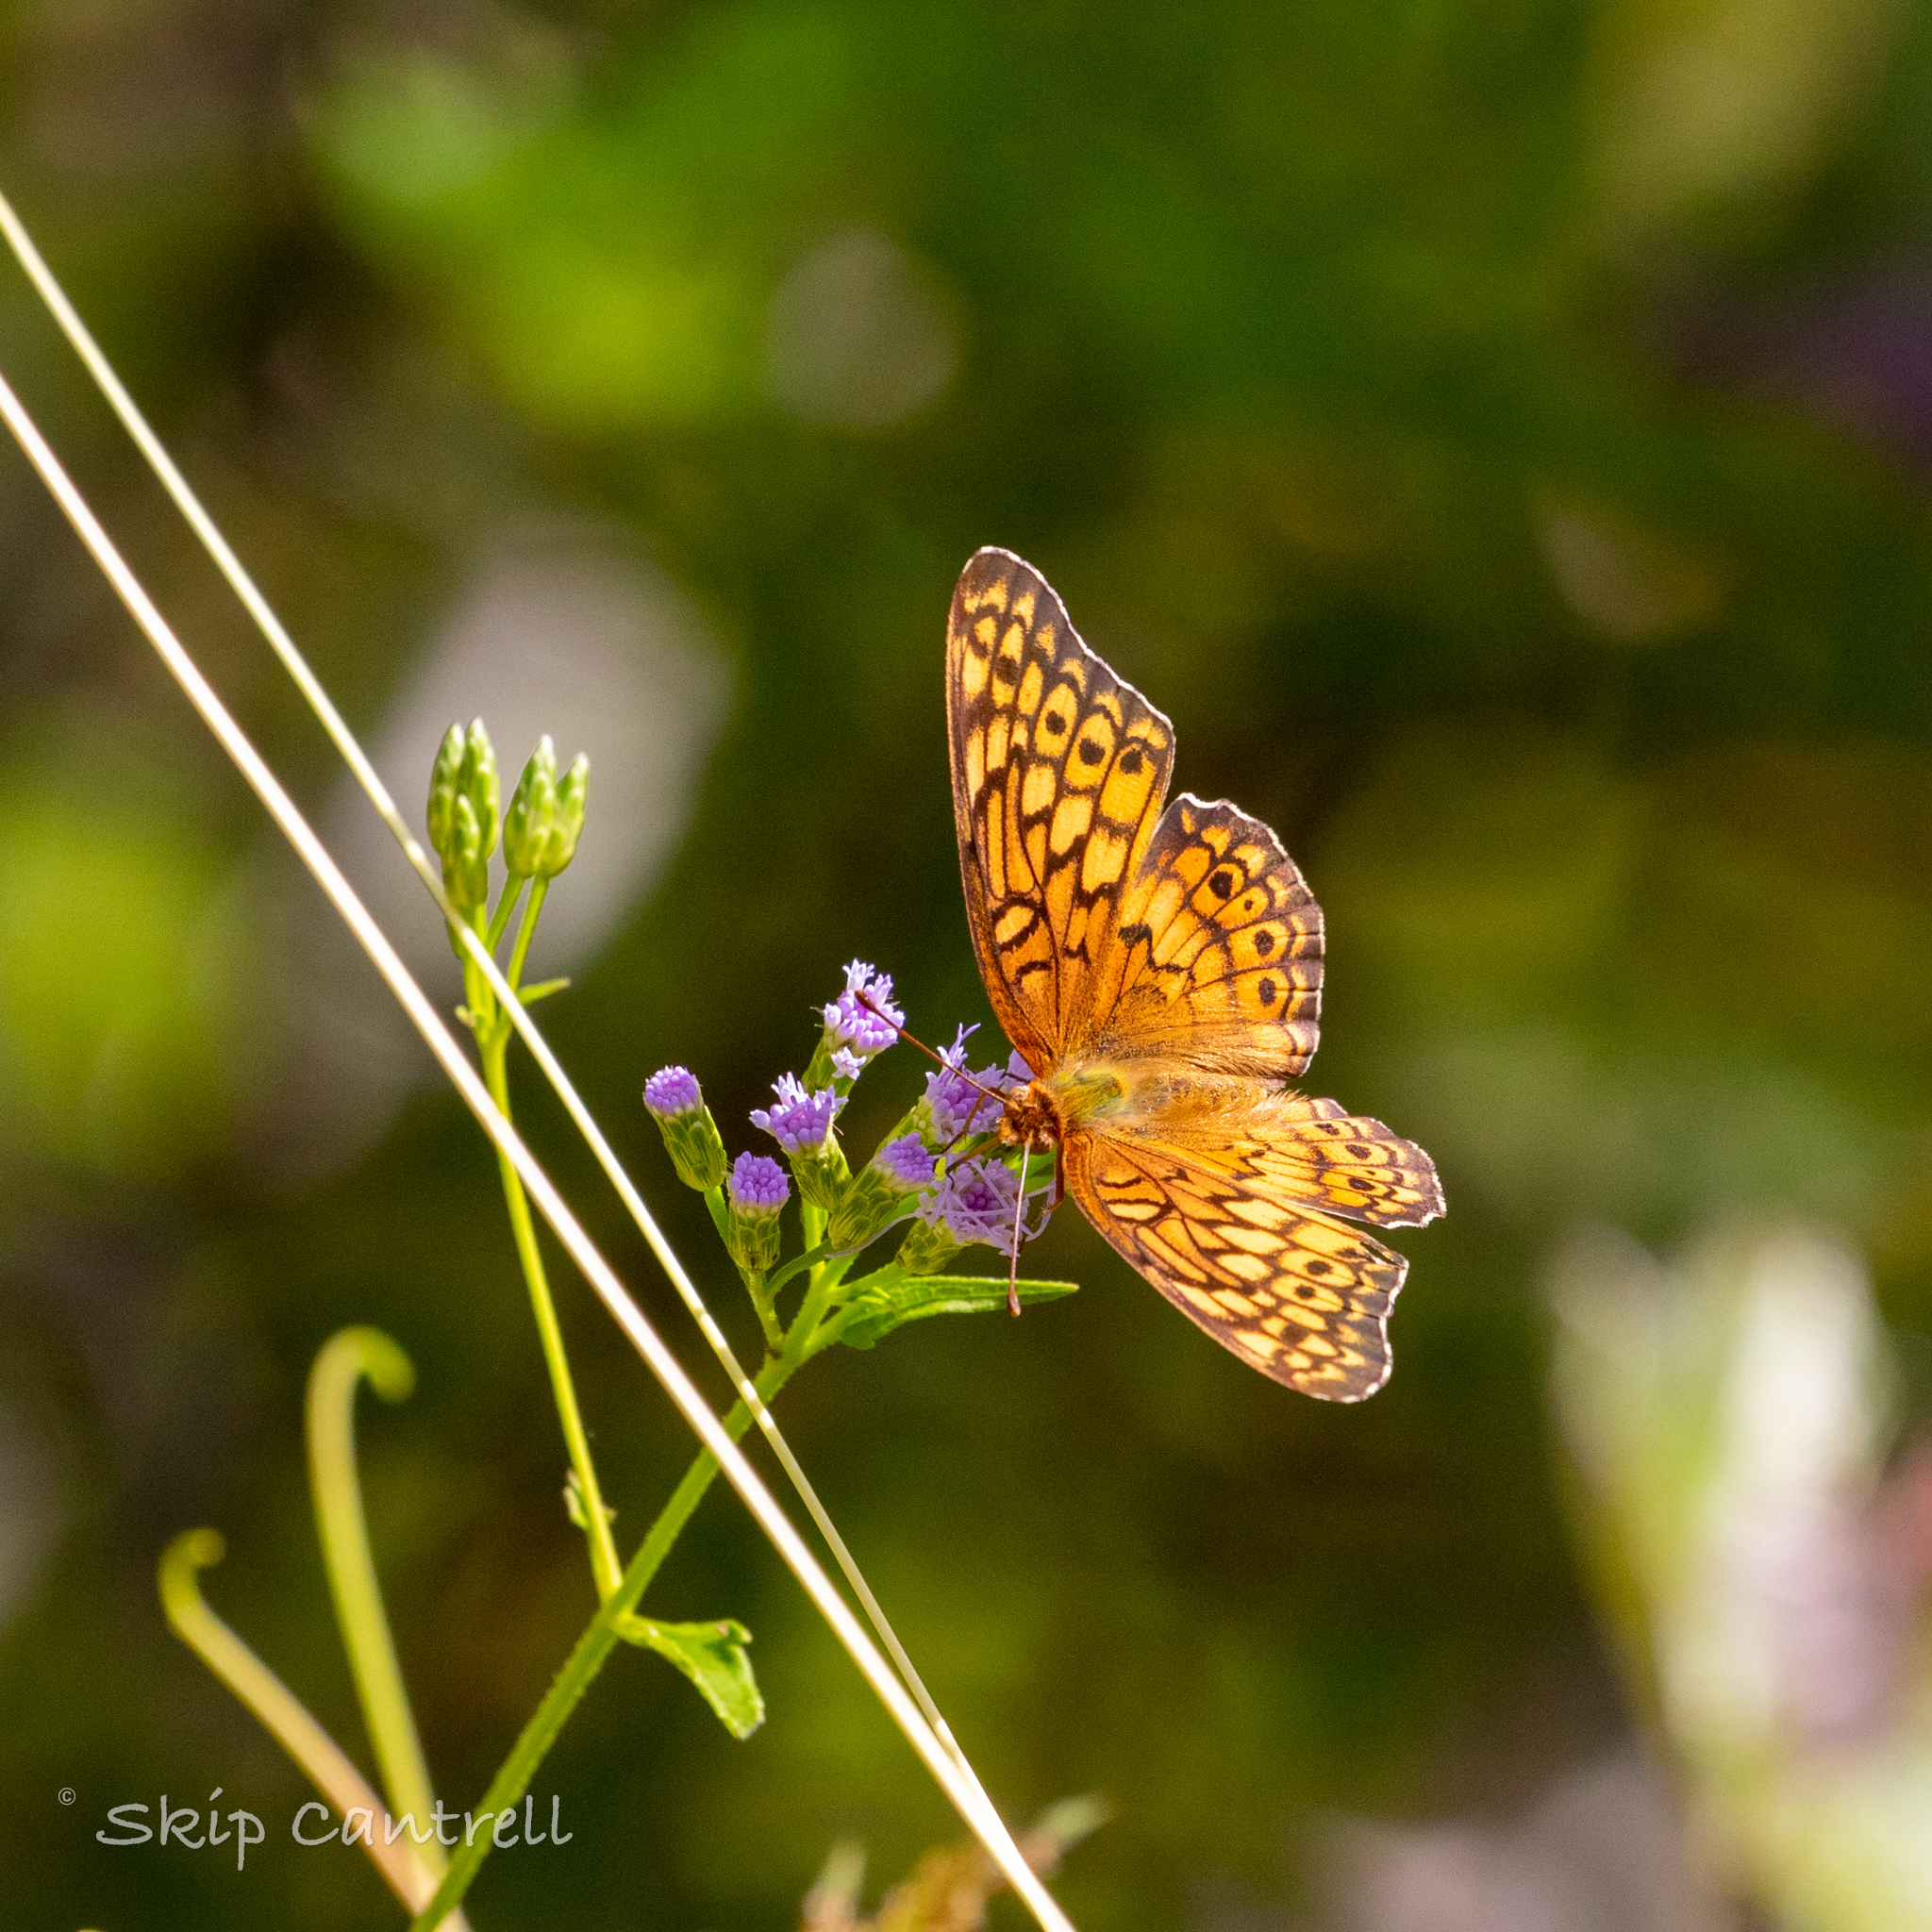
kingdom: Animalia
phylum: Arthropoda
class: Insecta
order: Lepidoptera
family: Nymphalidae
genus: Euptoieta
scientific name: Euptoieta claudia
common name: Variegated fritillary
